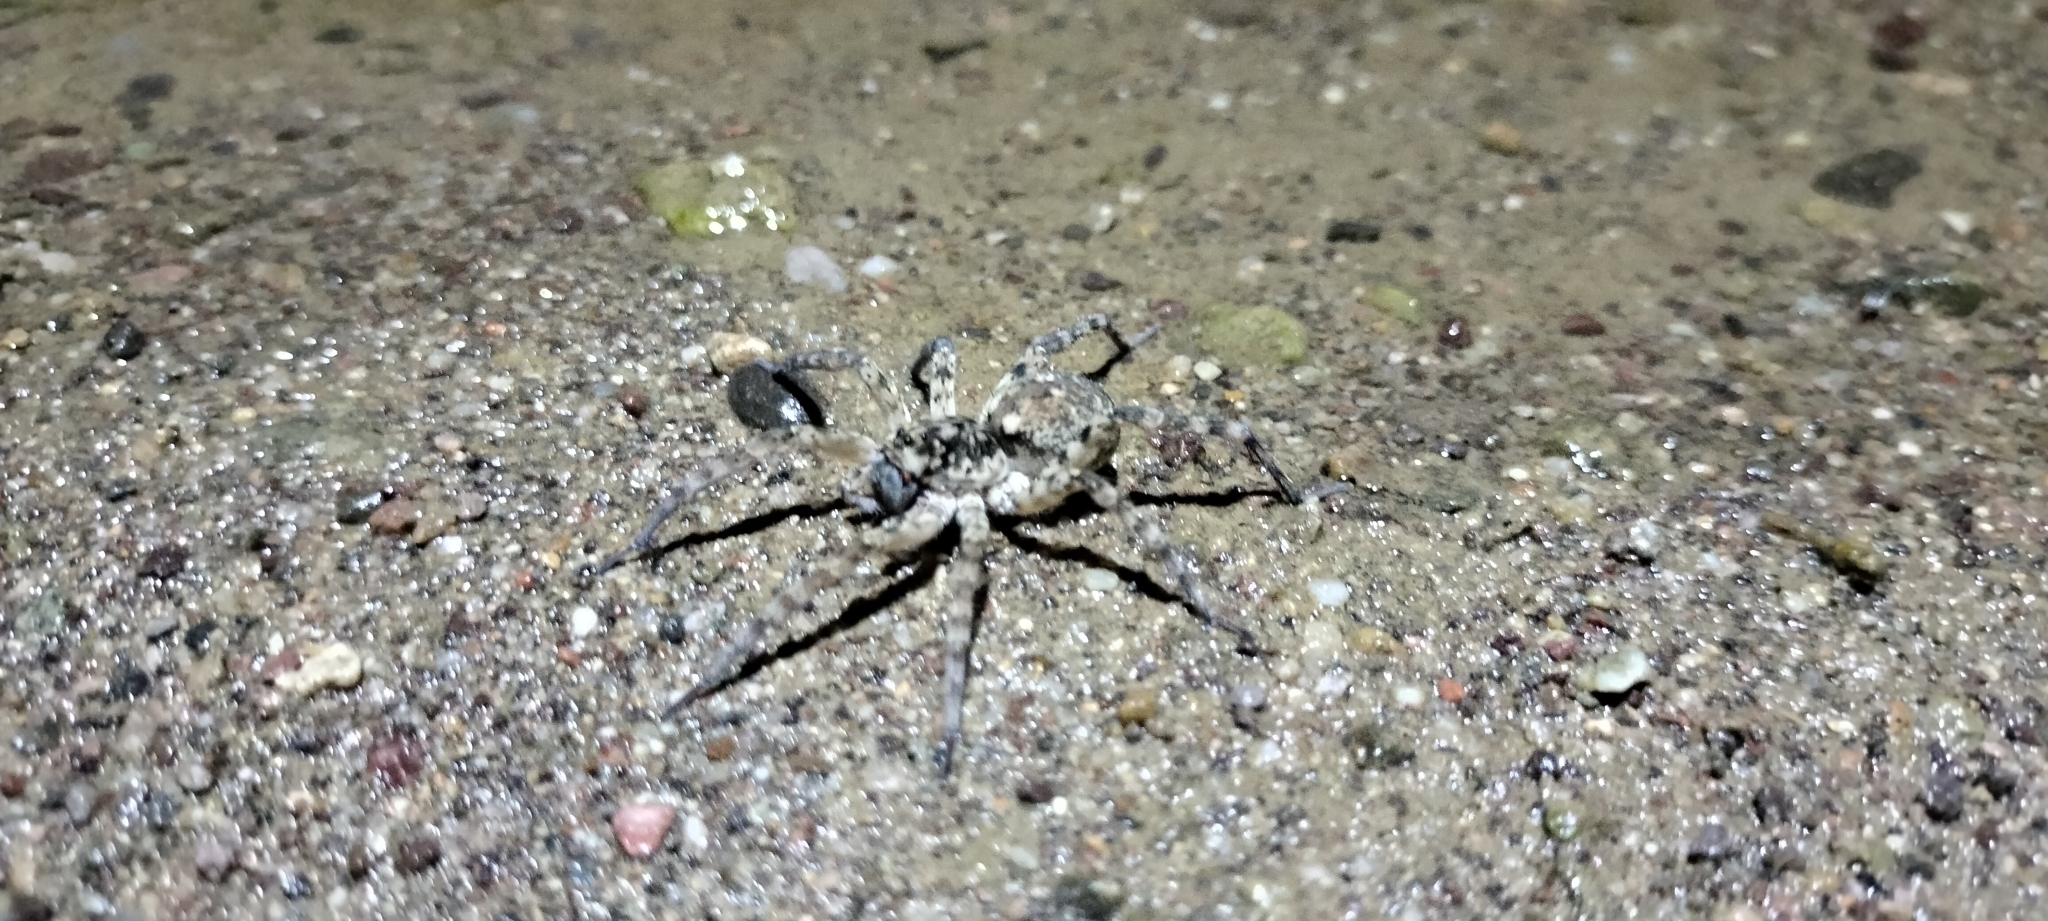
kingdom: Animalia
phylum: Arthropoda
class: Arachnida
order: Araneae
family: Lycosidae
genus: Arctosa
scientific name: Arctosa littoralis
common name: Wolf spiders
